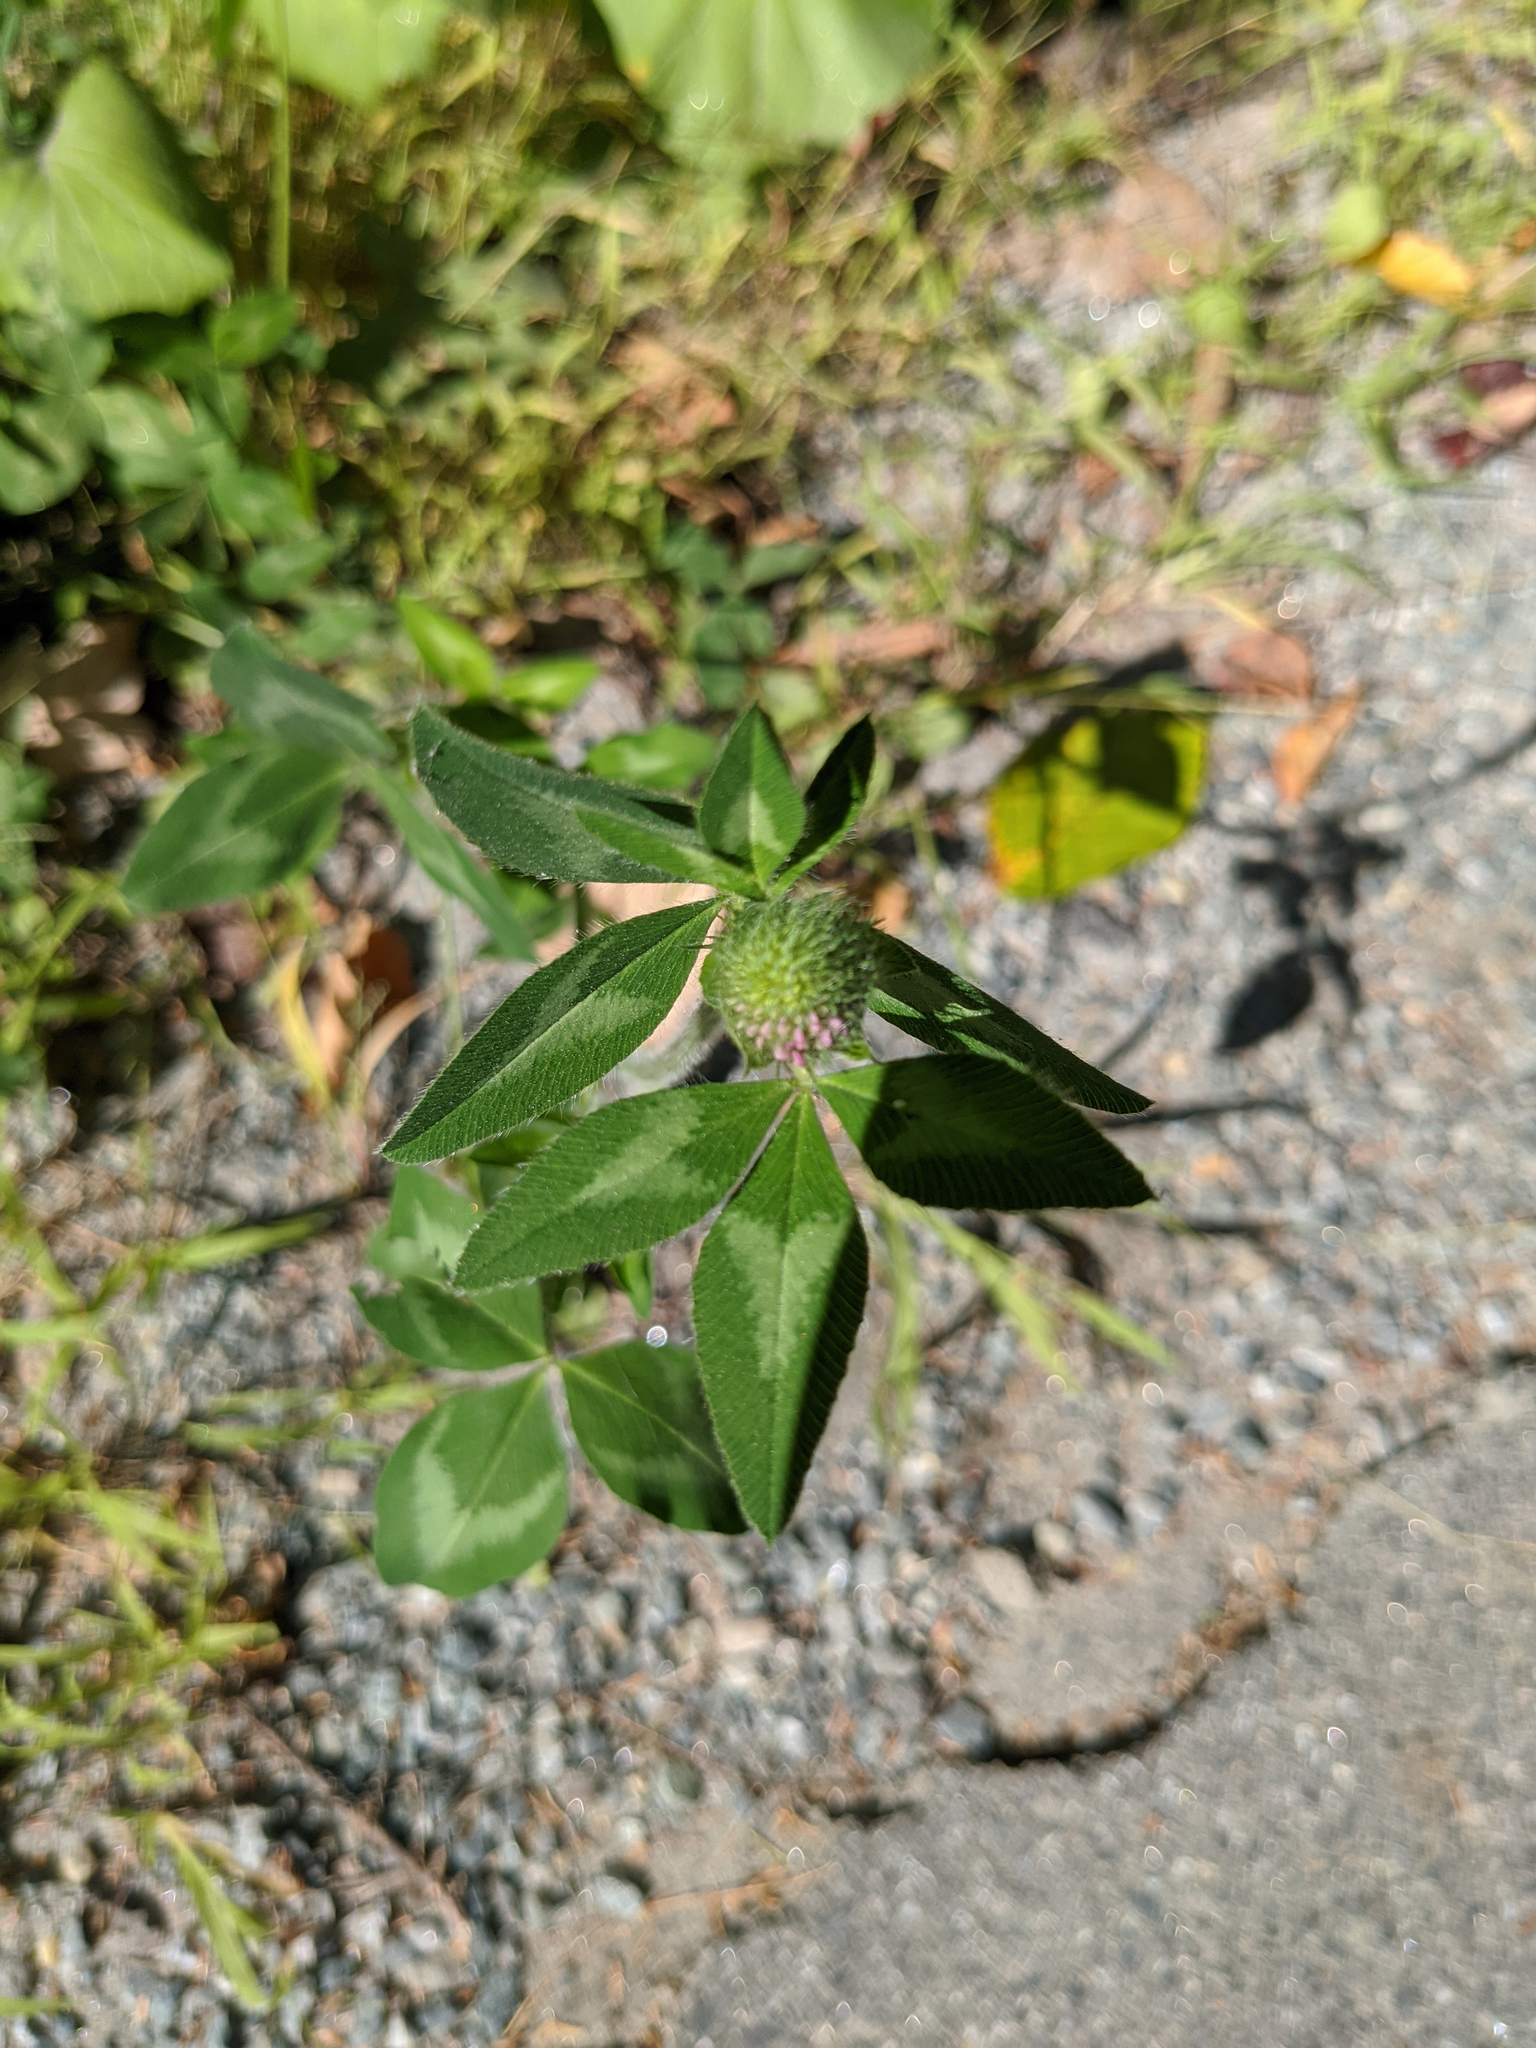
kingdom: Plantae
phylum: Tracheophyta
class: Magnoliopsida
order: Fabales
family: Fabaceae
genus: Trifolium
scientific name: Trifolium pratense
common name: Red clover
